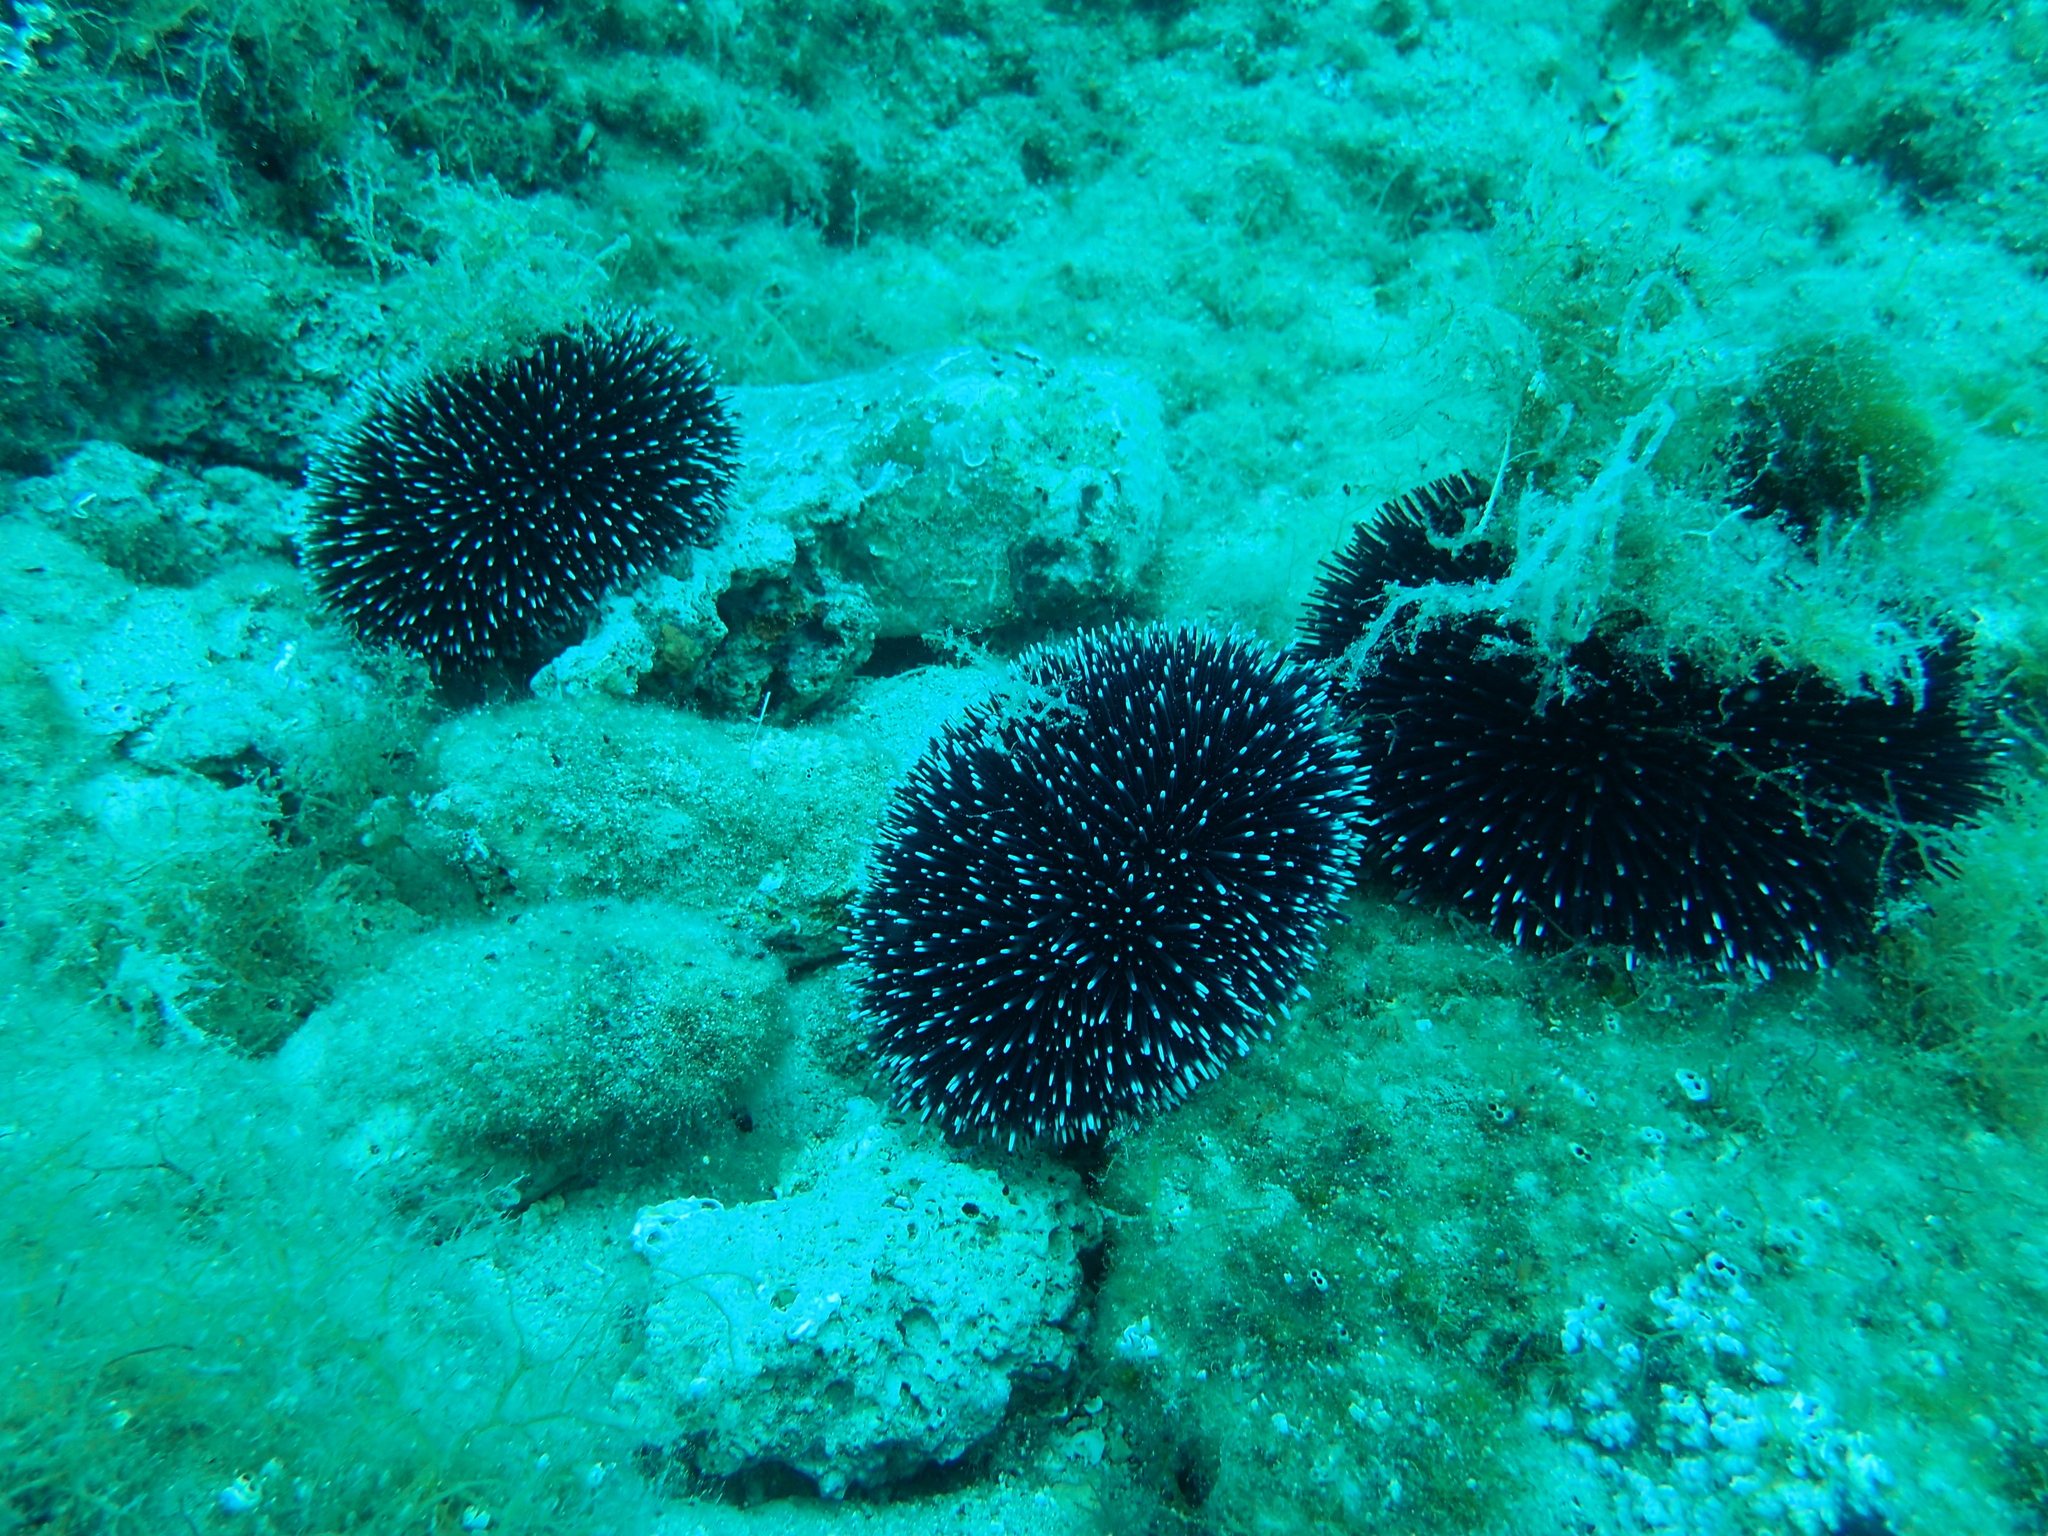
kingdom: Animalia
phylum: Echinodermata
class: Echinoidea
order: Camarodonta
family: Toxopneustidae
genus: Sphaerechinus
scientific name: Sphaerechinus granularis
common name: Violet sea urchin
